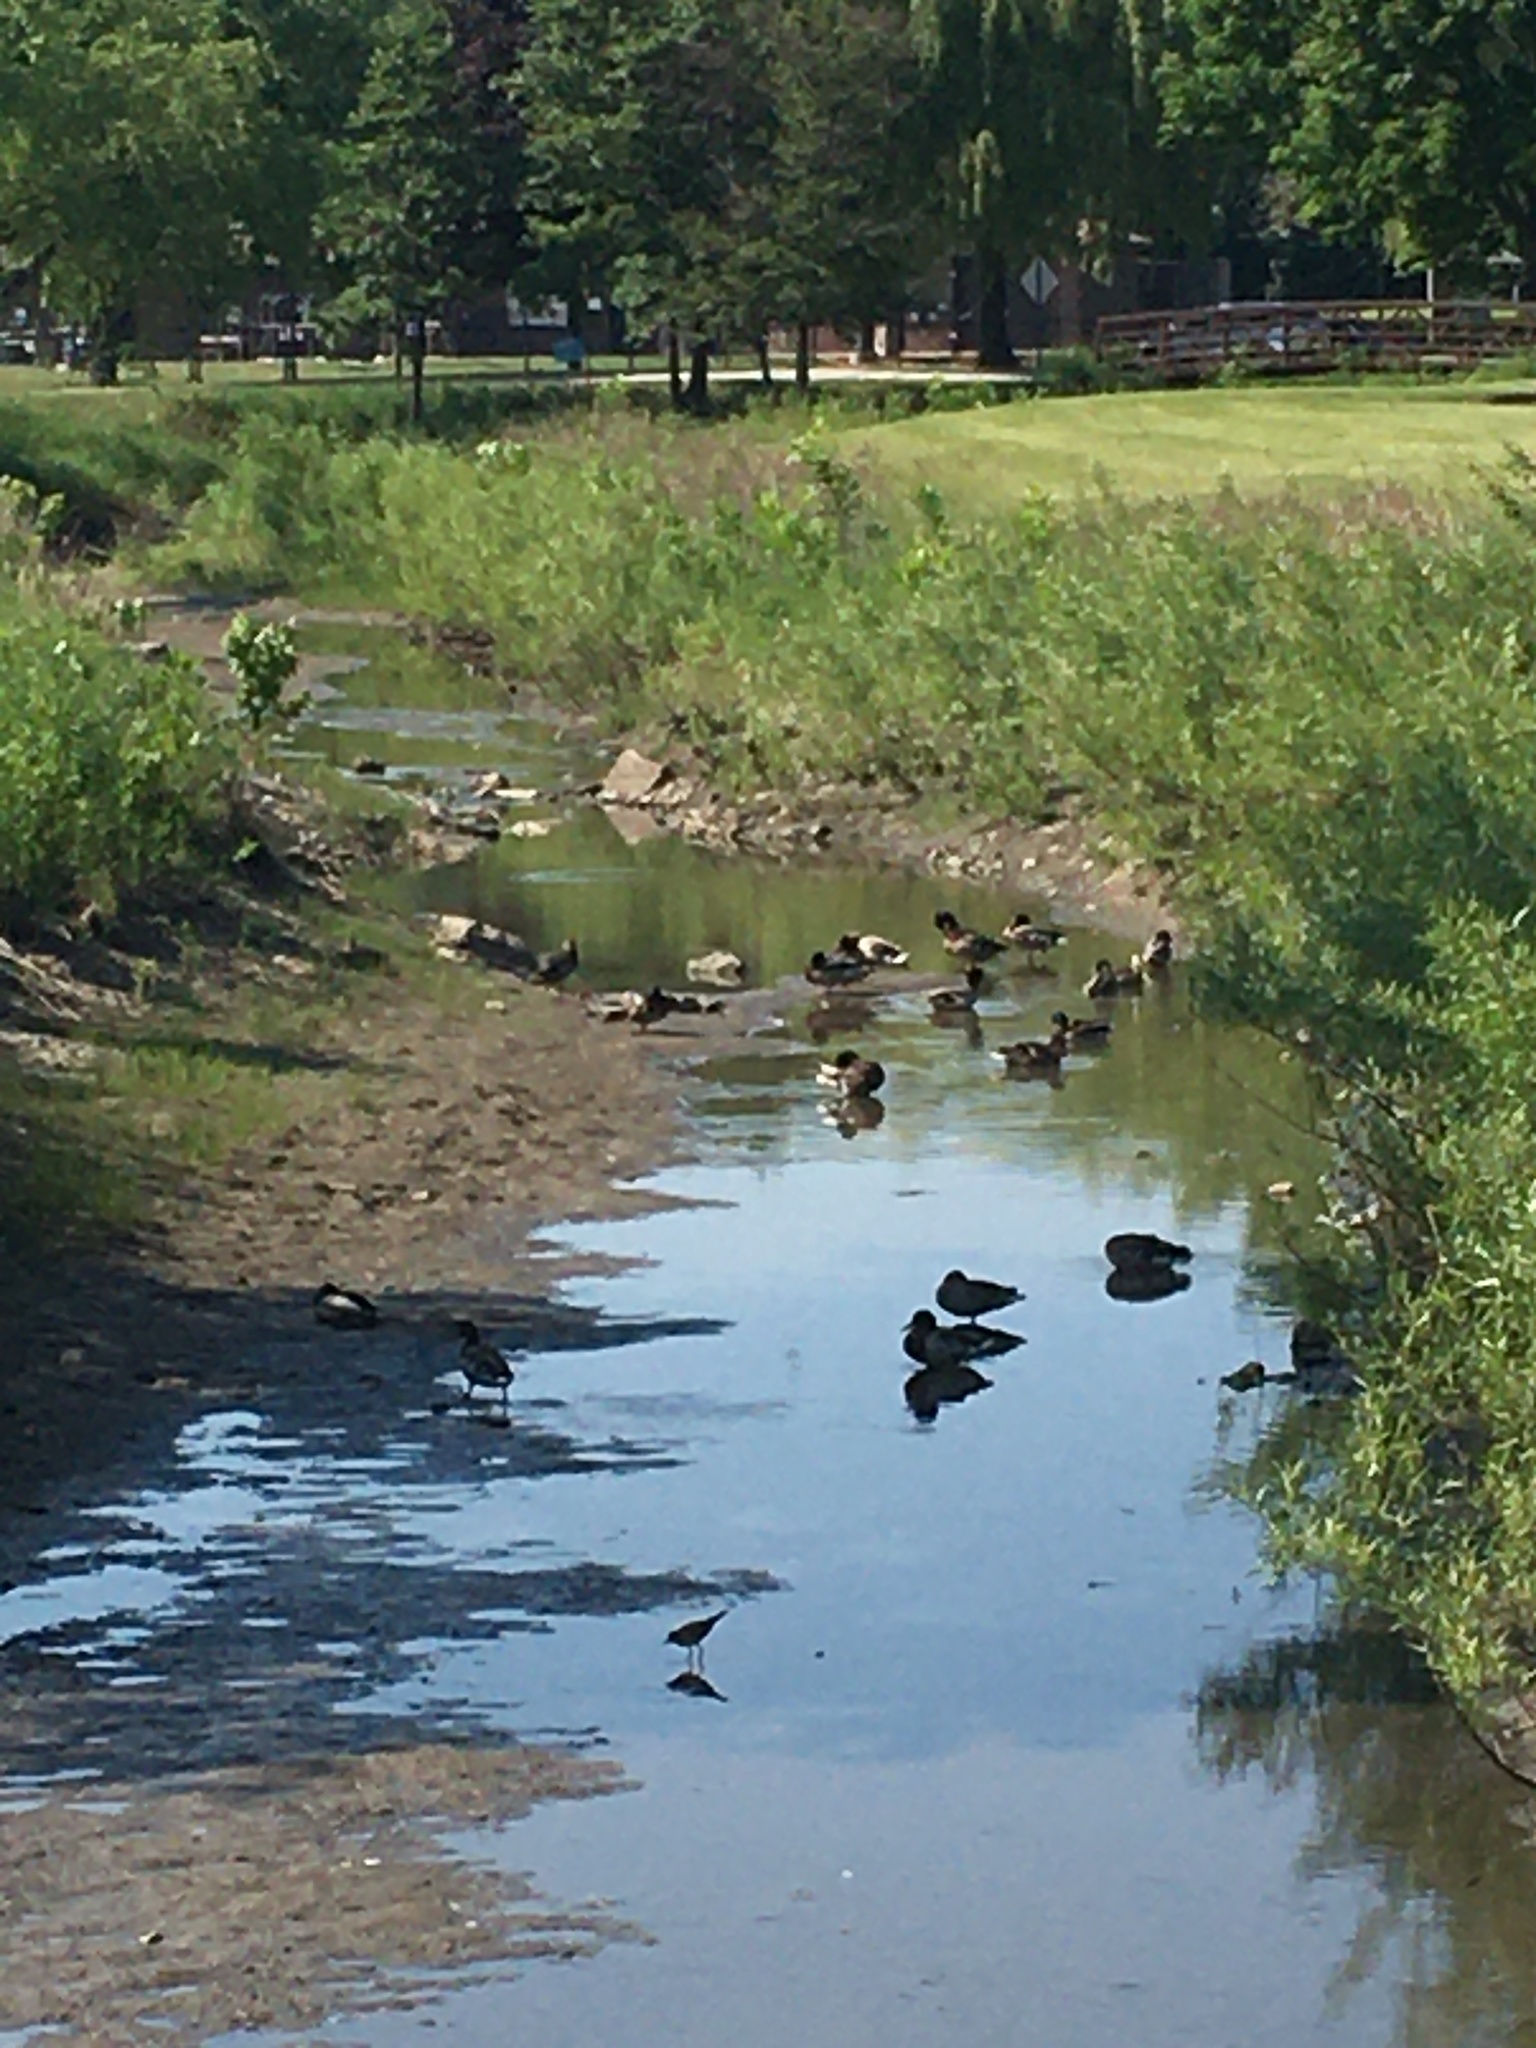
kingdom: Animalia
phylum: Chordata
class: Aves
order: Anseriformes
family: Anatidae
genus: Anas
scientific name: Anas platyrhynchos
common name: Mallard
